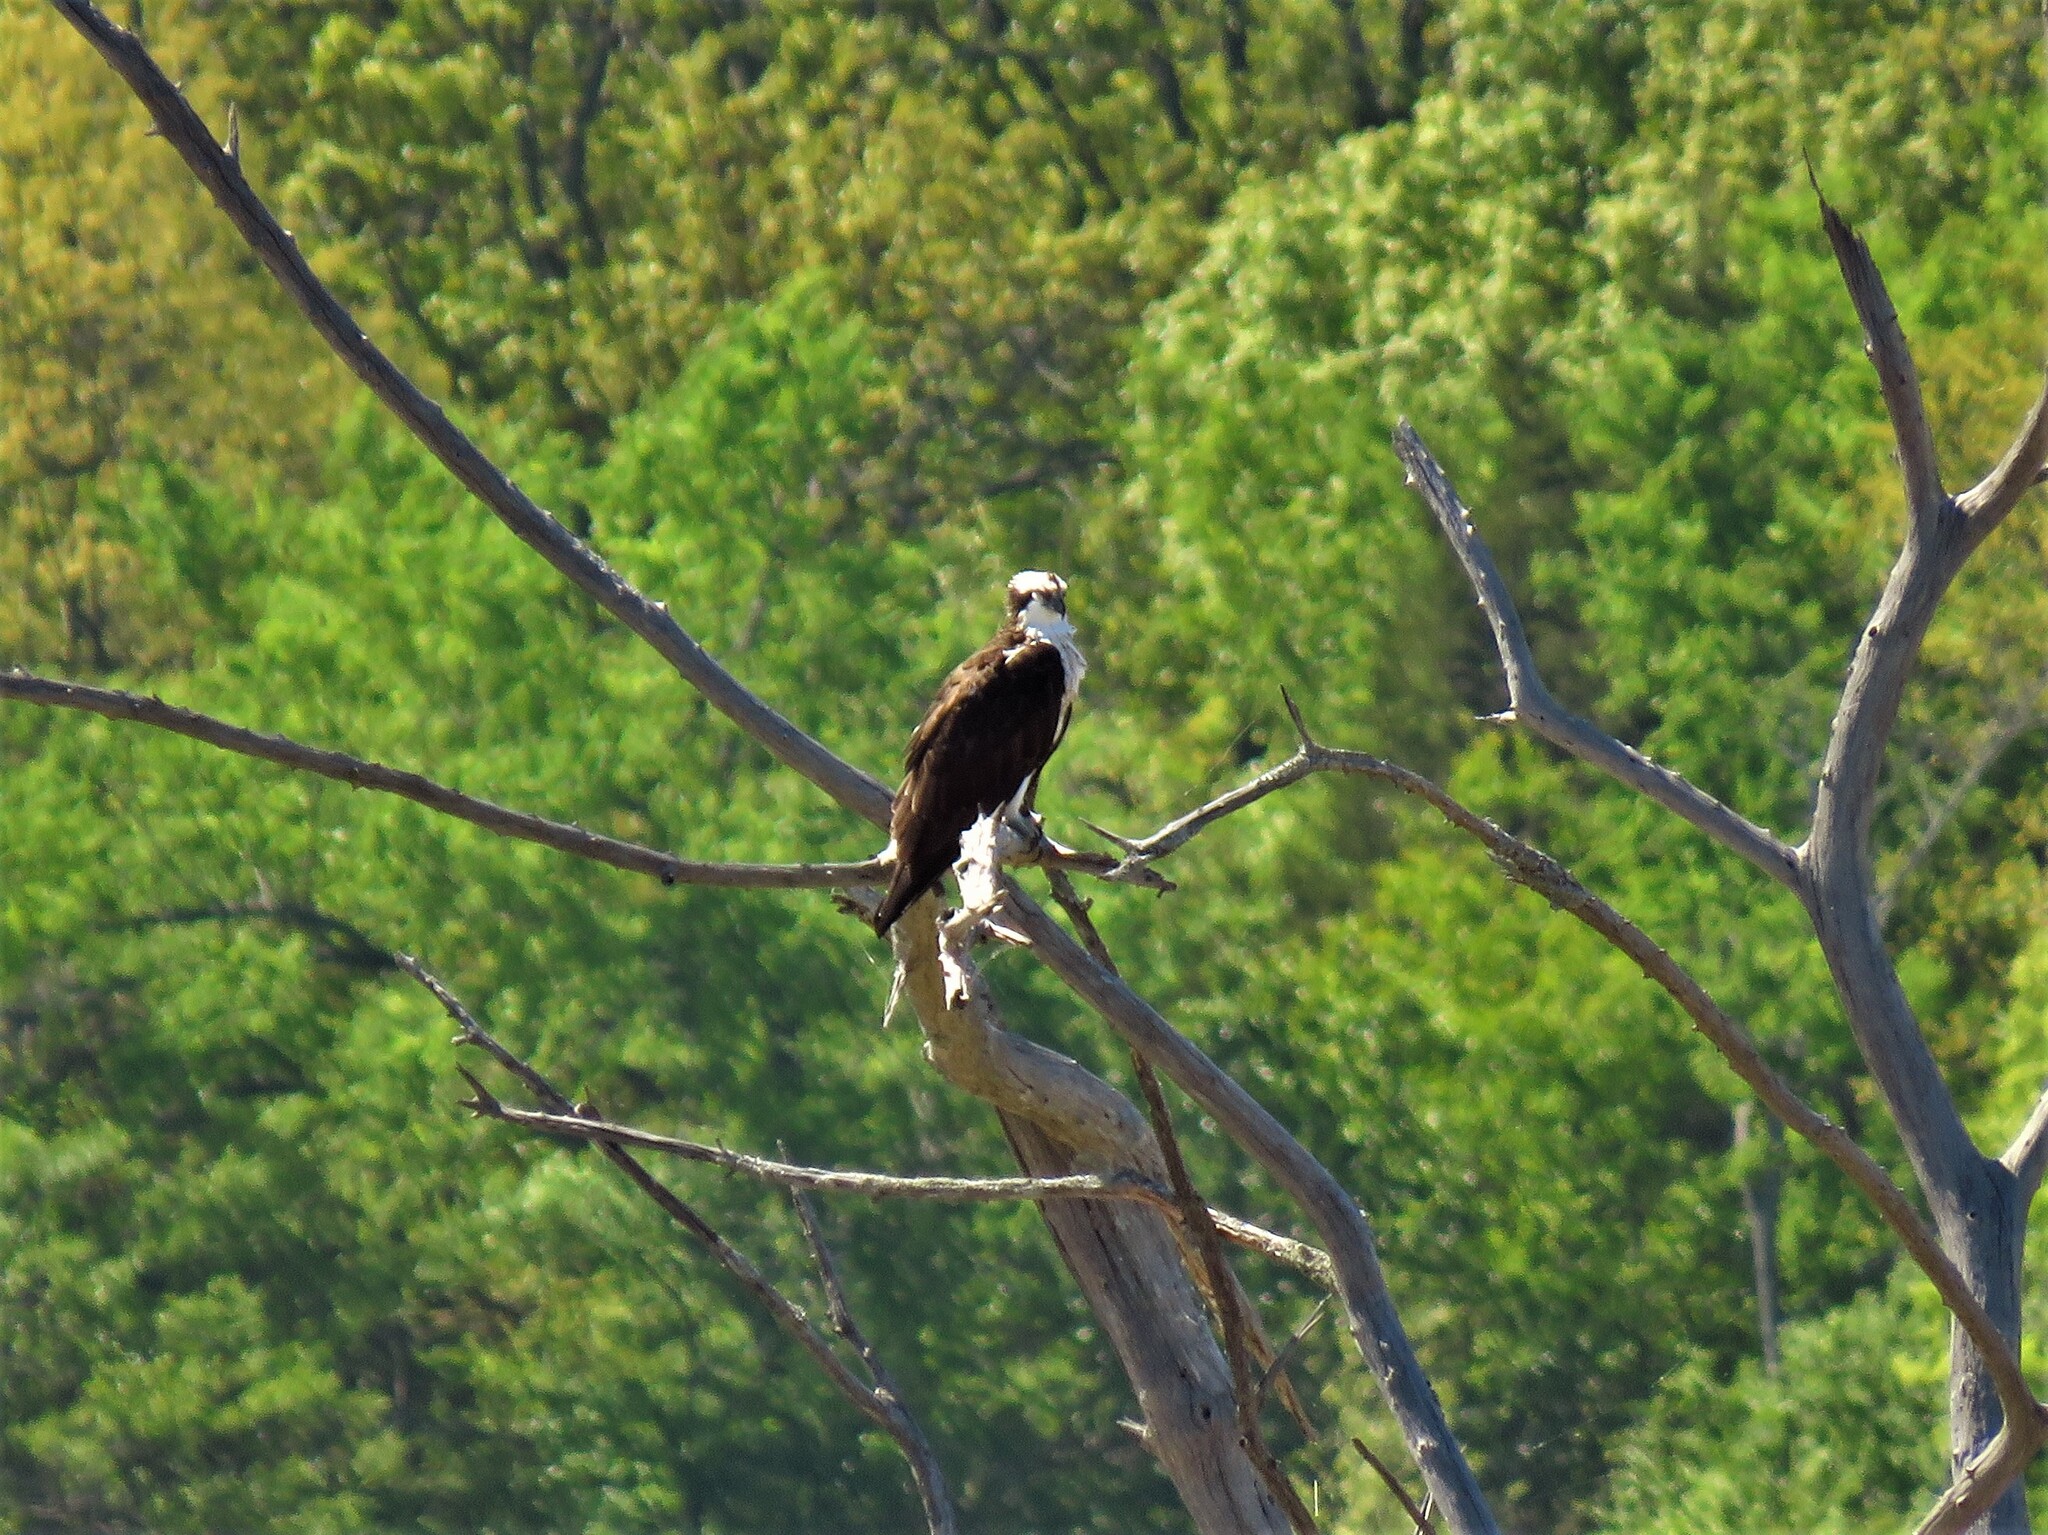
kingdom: Animalia
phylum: Chordata
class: Aves
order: Accipitriformes
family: Pandionidae
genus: Pandion
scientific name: Pandion haliaetus
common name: Osprey
